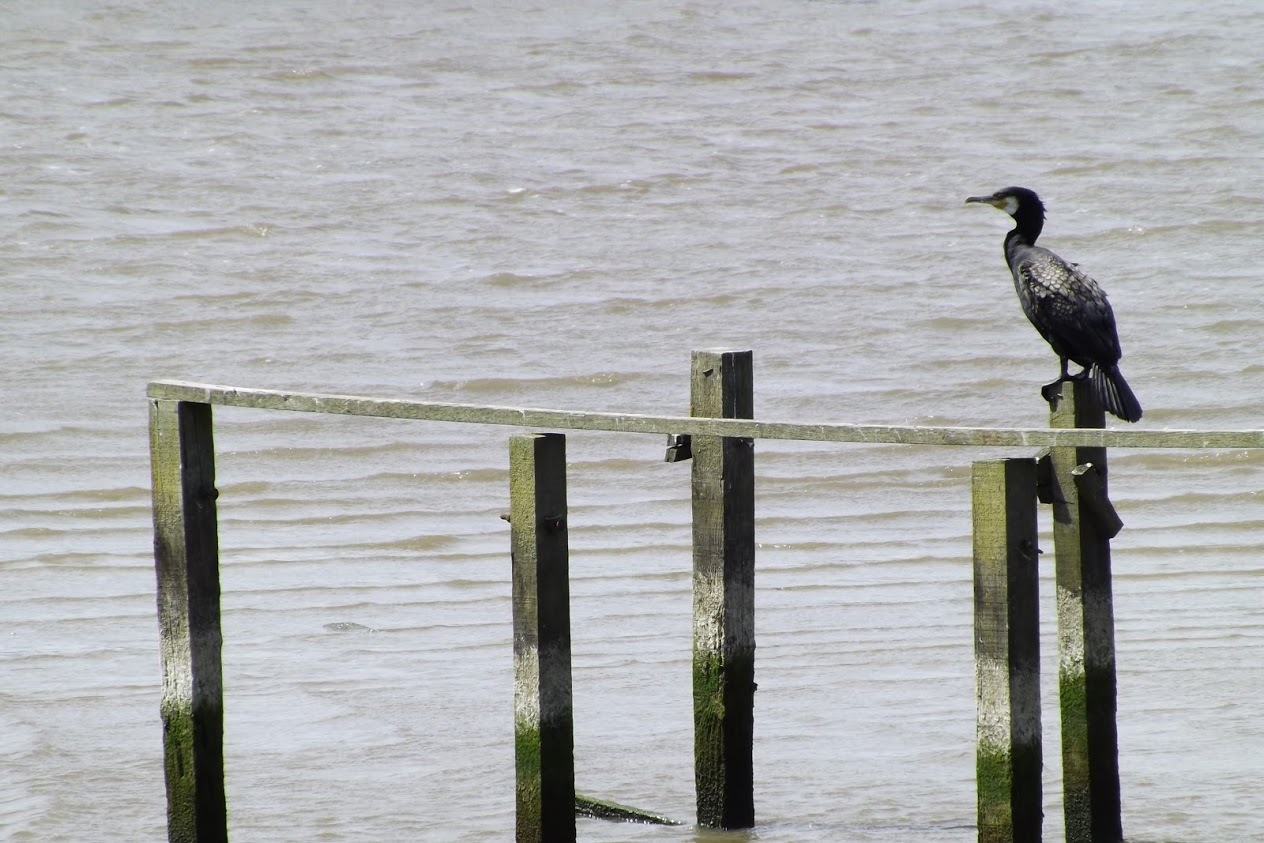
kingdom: Animalia
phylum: Chordata
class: Aves
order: Suliformes
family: Phalacrocoracidae
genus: Phalacrocorax
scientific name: Phalacrocorax carbo
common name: Great cormorant
